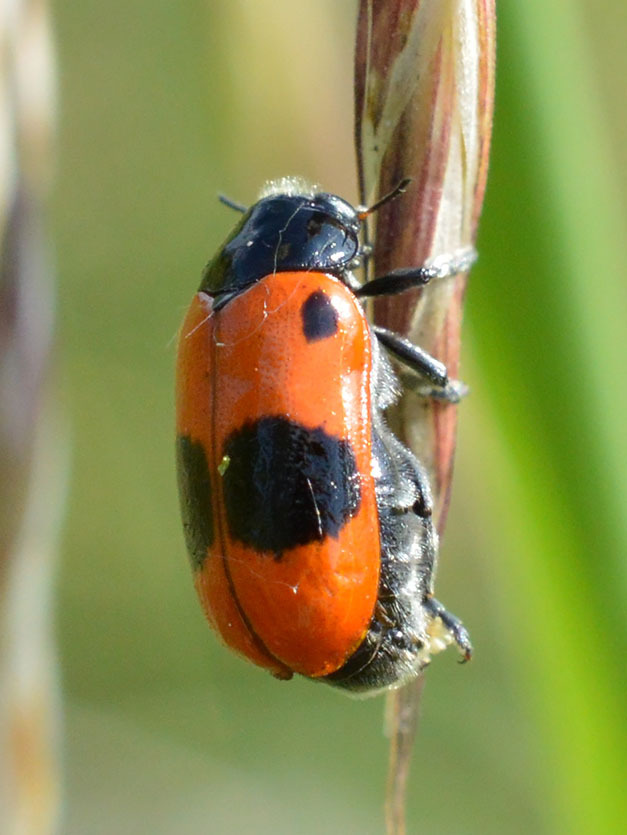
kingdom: Animalia
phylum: Arthropoda
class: Insecta
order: Coleoptera
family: Chrysomelidae
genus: Clytra
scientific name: Clytra laeviuscula
